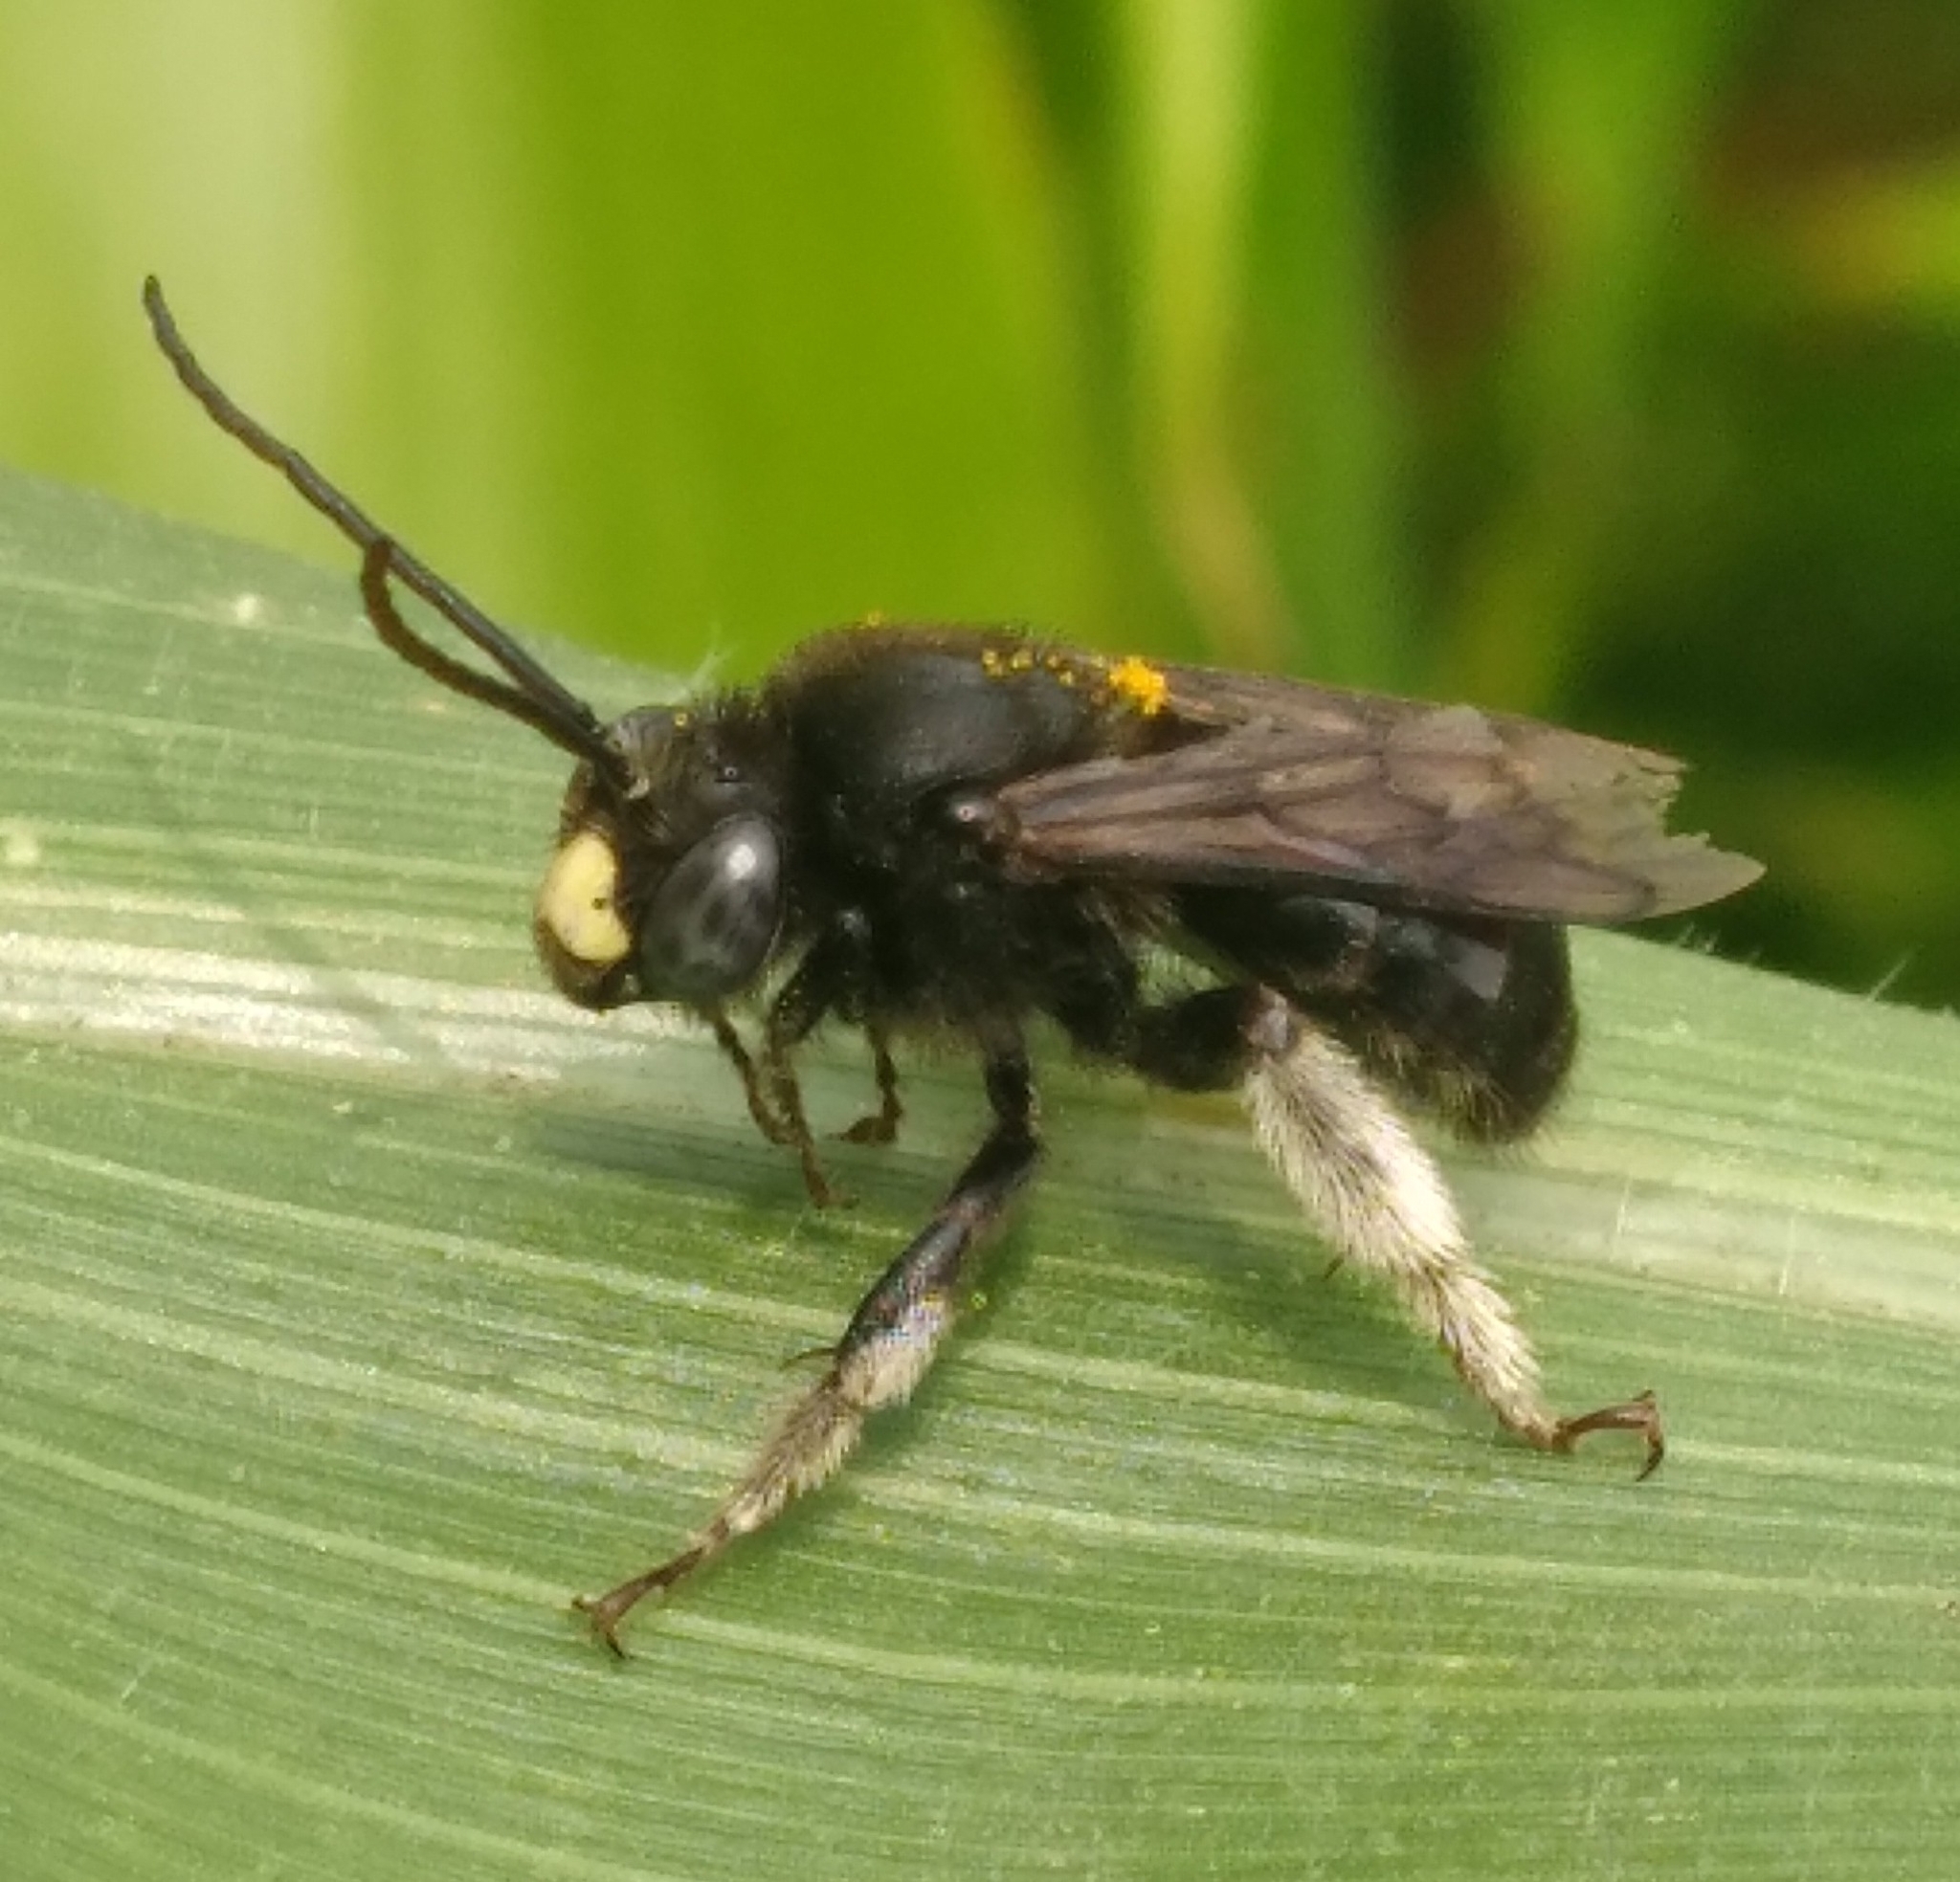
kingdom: Animalia
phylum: Arthropoda
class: Insecta
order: Hymenoptera
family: Apidae
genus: Melissodes
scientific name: Melissodes bimaculatus
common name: Two-spotted long-horned bee
